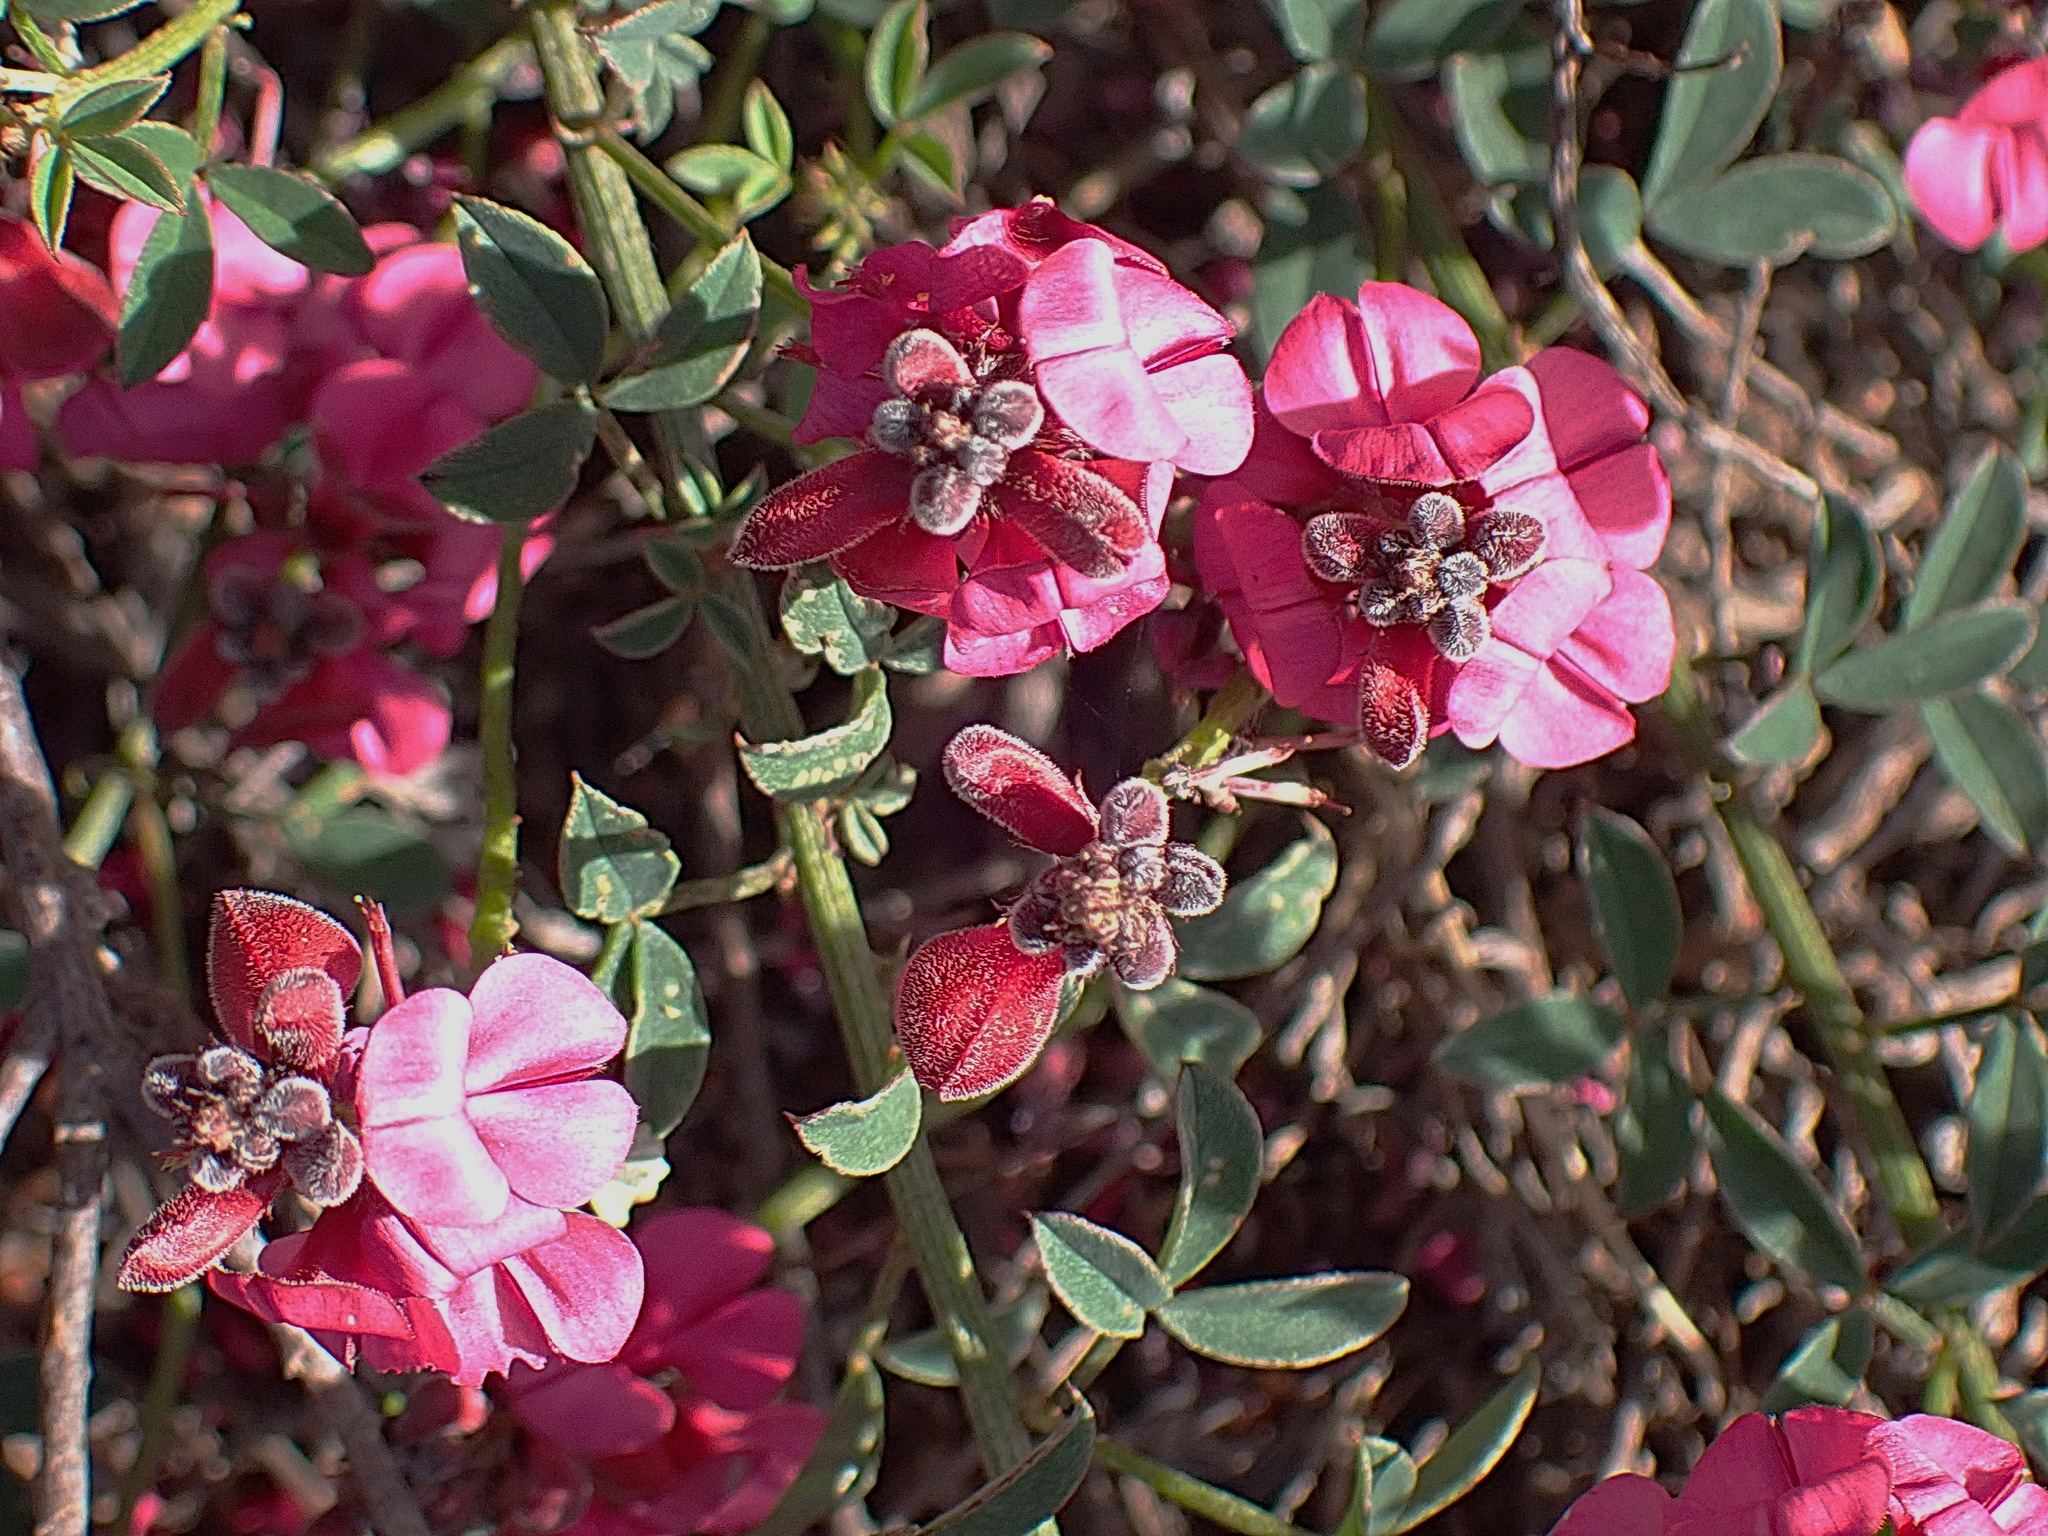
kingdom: Plantae
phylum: Tracheophyta
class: Magnoliopsida
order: Fabales
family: Fabaceae
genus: Indigofera
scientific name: Indigofera heterophylla
